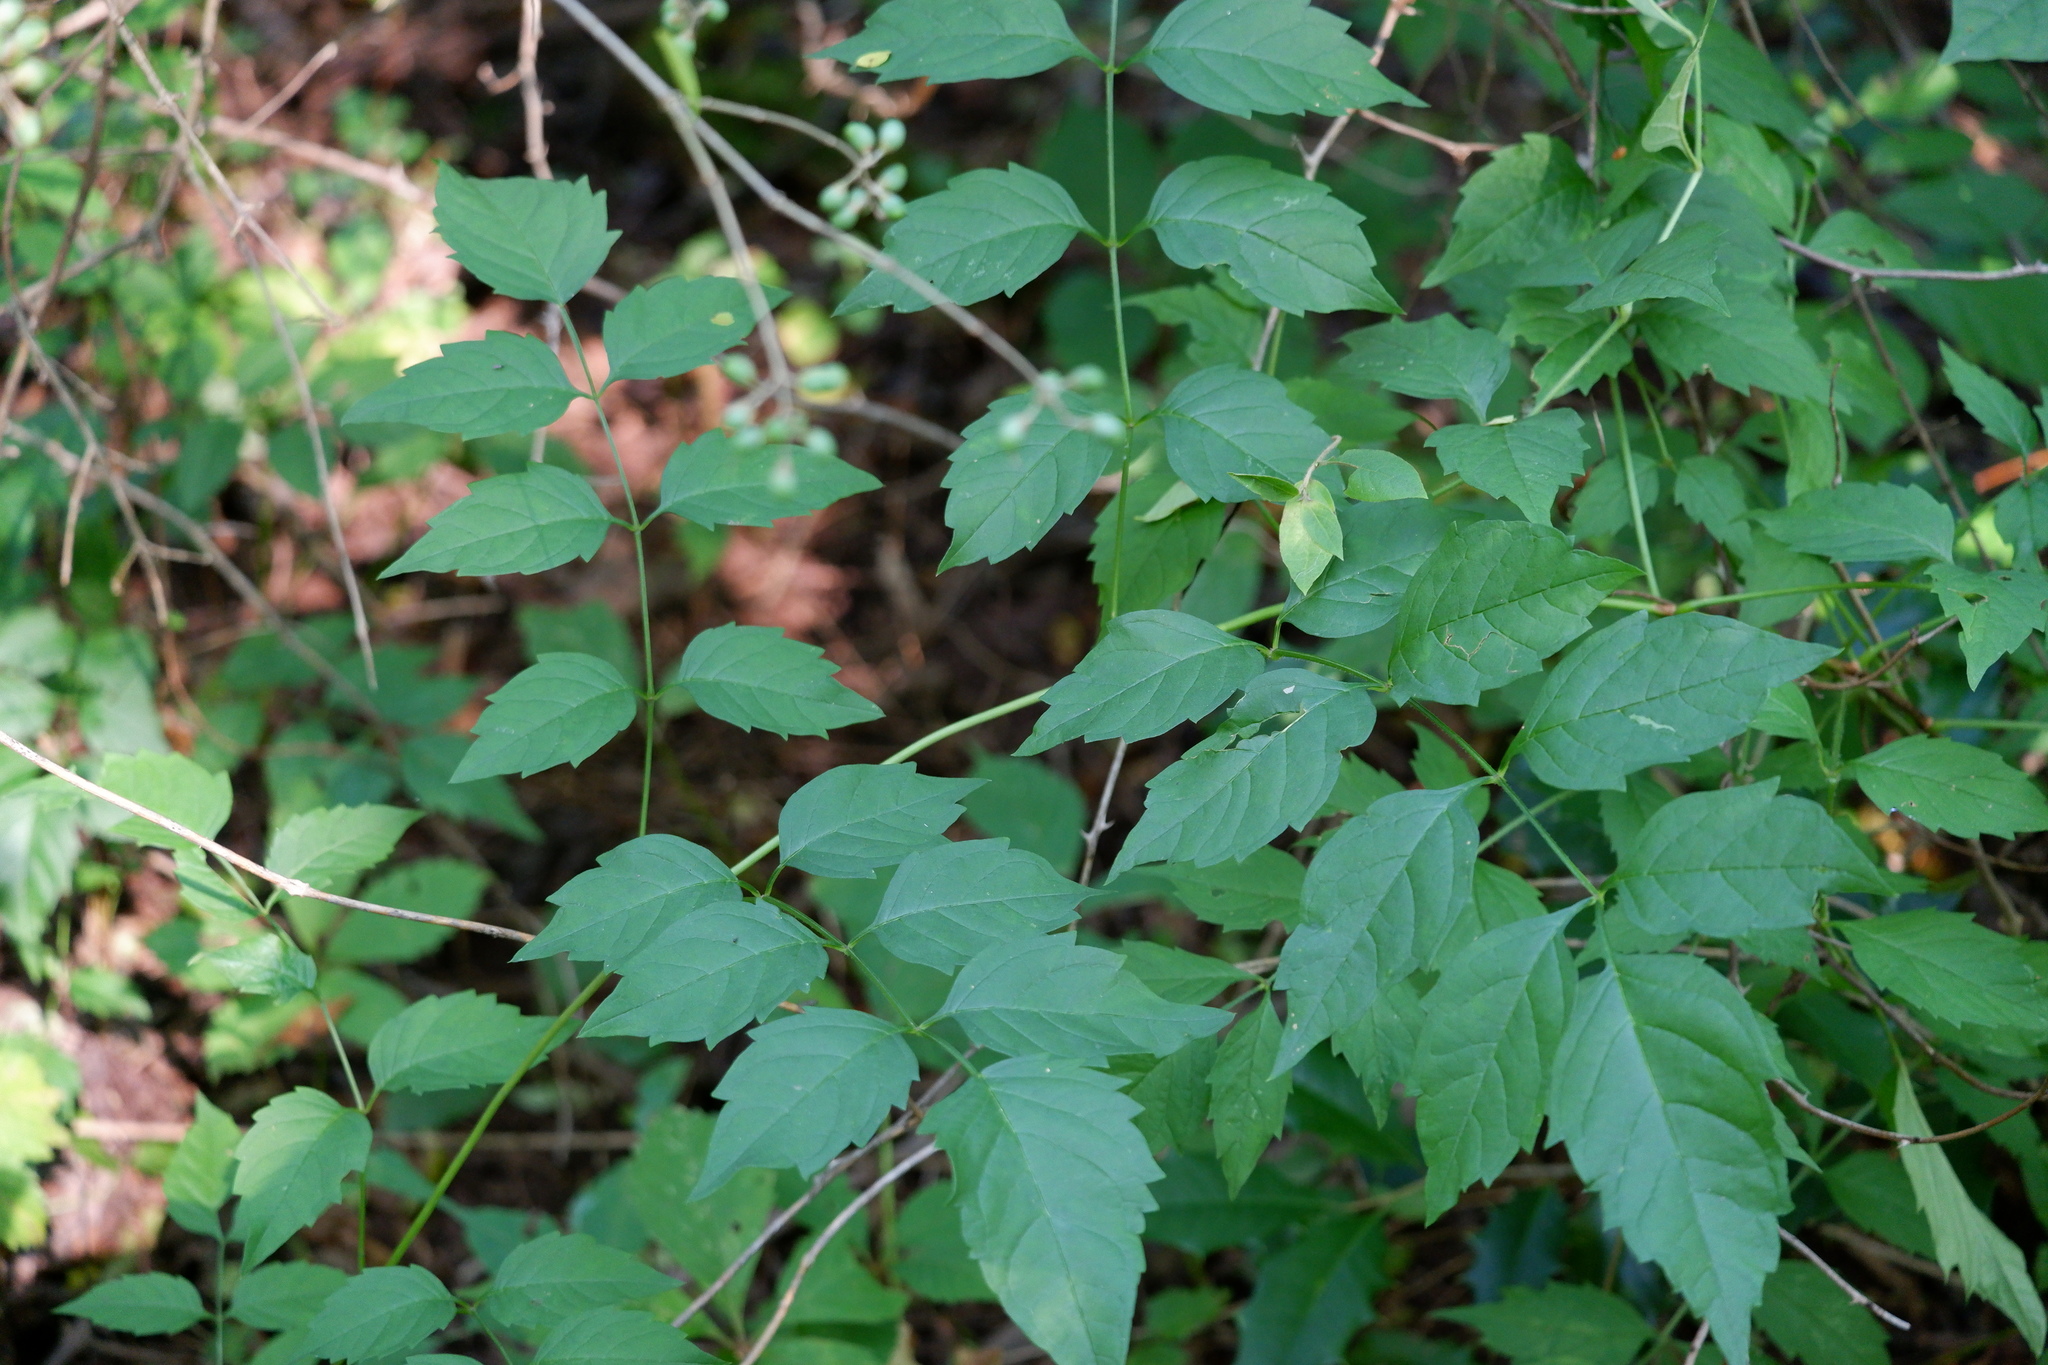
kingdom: Plantae
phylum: Tracheophyta
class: Magnoliopsida
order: Lamiales
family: Bignoniaceae
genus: Campsis
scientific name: Campsis radicans
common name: Trumpet-creeper
